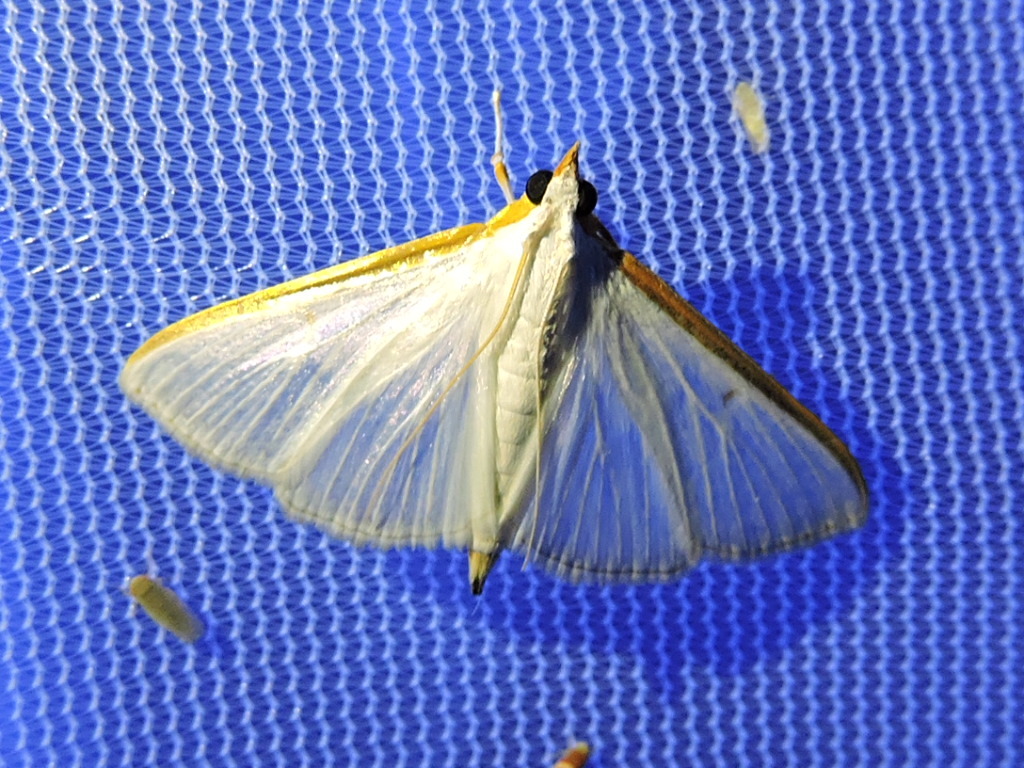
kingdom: Animalia
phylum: Arthropoda
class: Insecta
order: Lepidoptera
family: Crambidae
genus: Diaphania
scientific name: Diaphania costata
